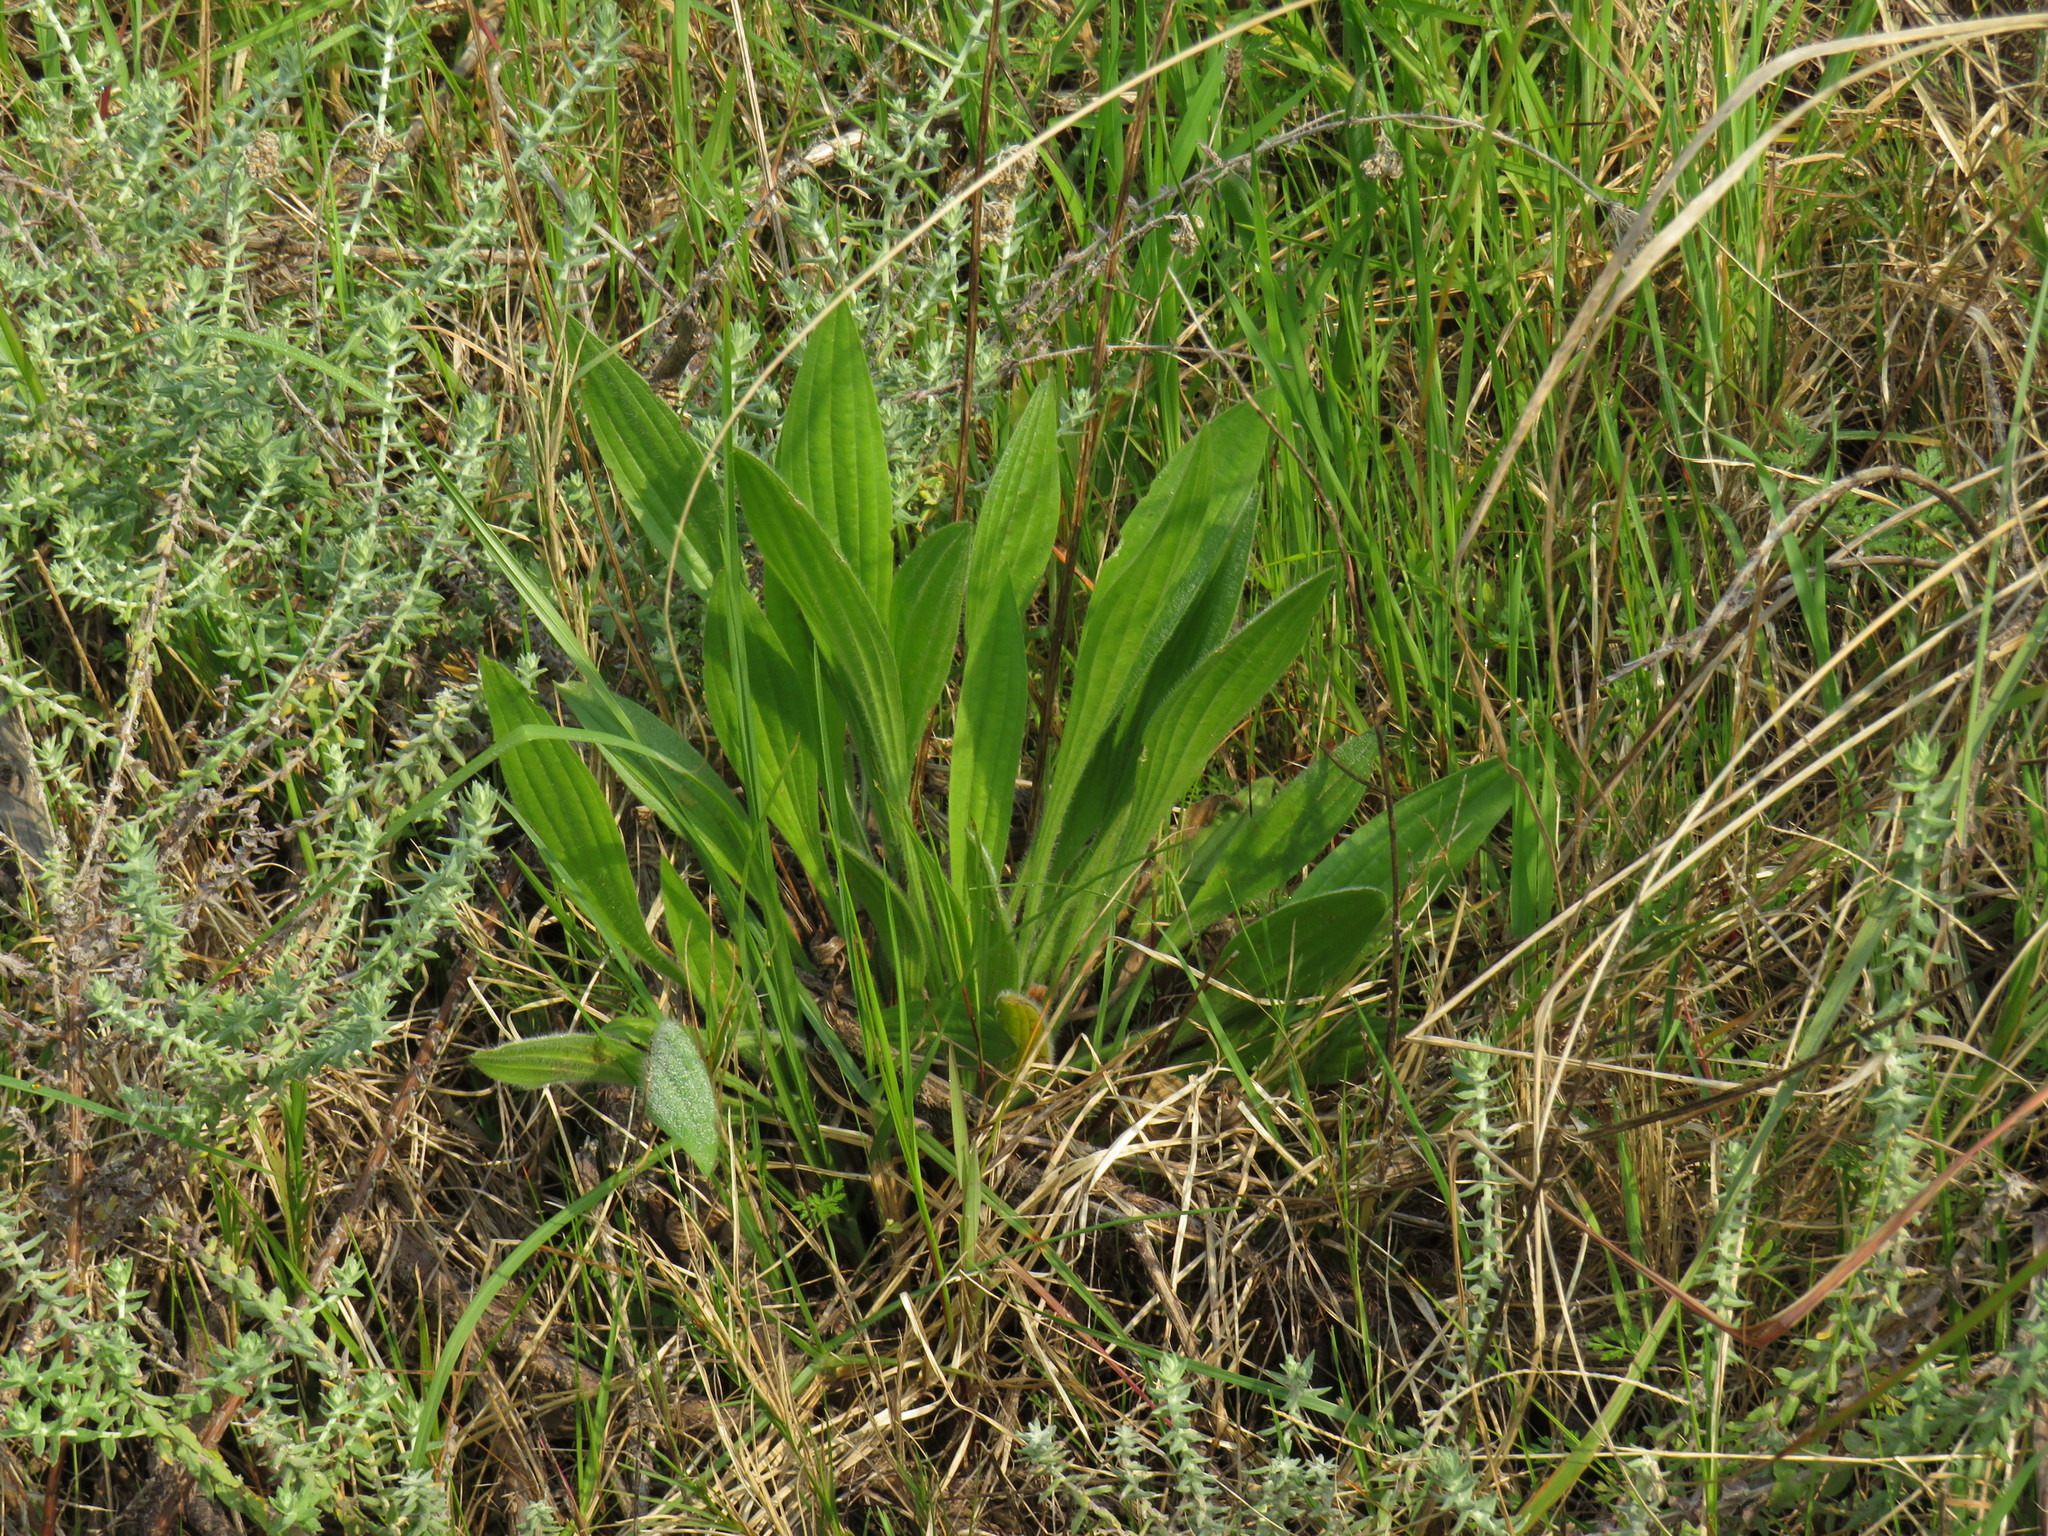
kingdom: Plantae
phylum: Tracheophyta
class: Magnoliopsida
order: Lamiales
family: Plantaginaceae
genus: Plantago
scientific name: Plantago lanceolata
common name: Ribwort plantain
